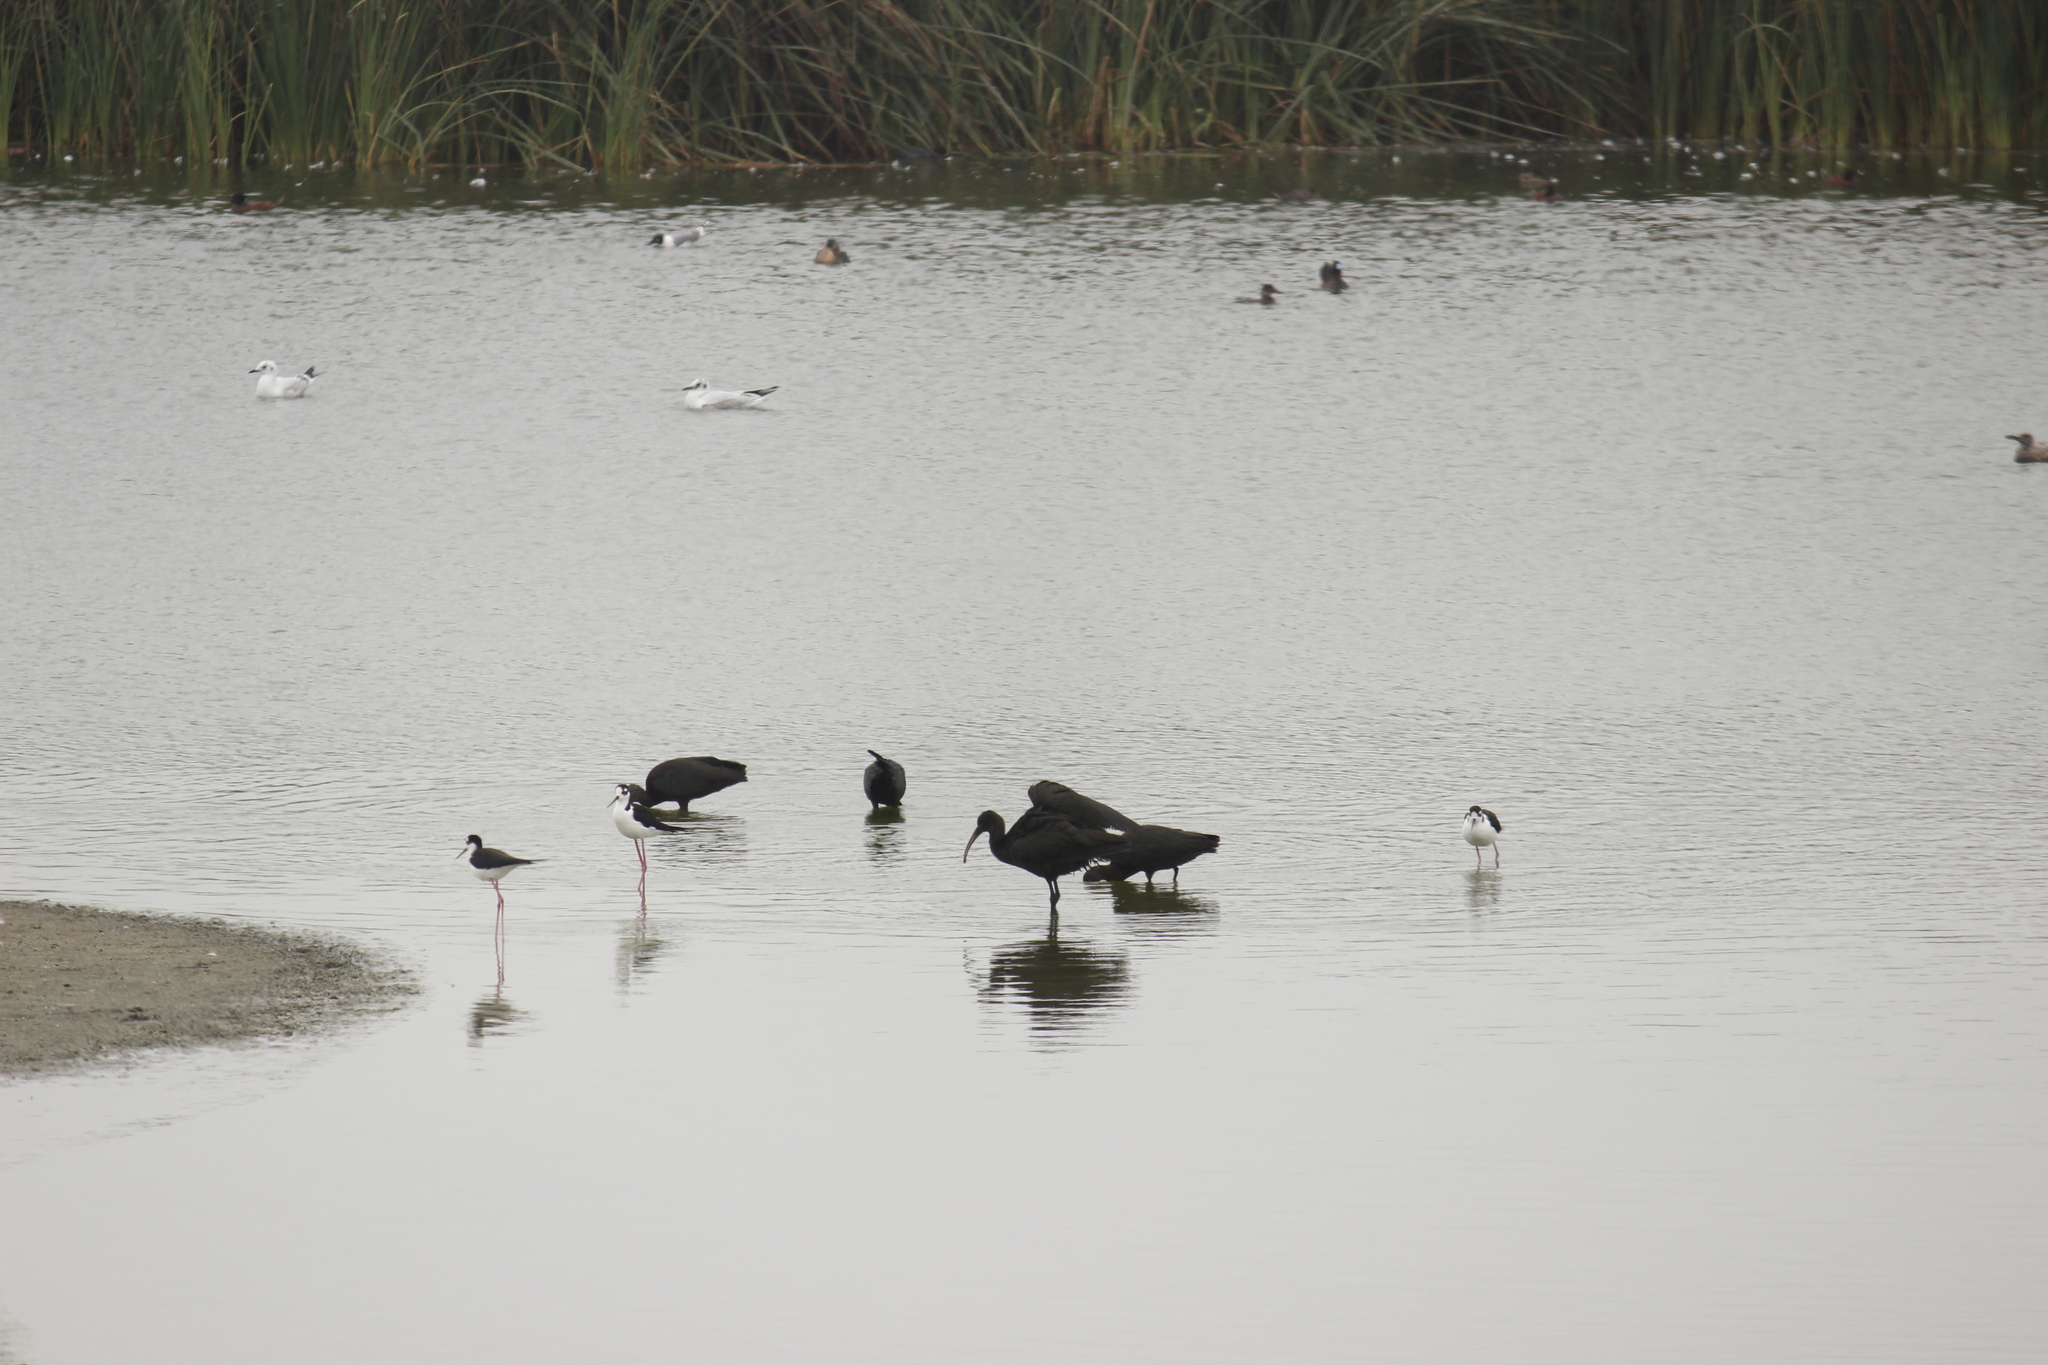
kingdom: Animalia
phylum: Chordata
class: Aves
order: Pelecaniformes
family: Threskiornithidae
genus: Plegadis
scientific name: Plegadis ridgwayi
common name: Puna ibis
